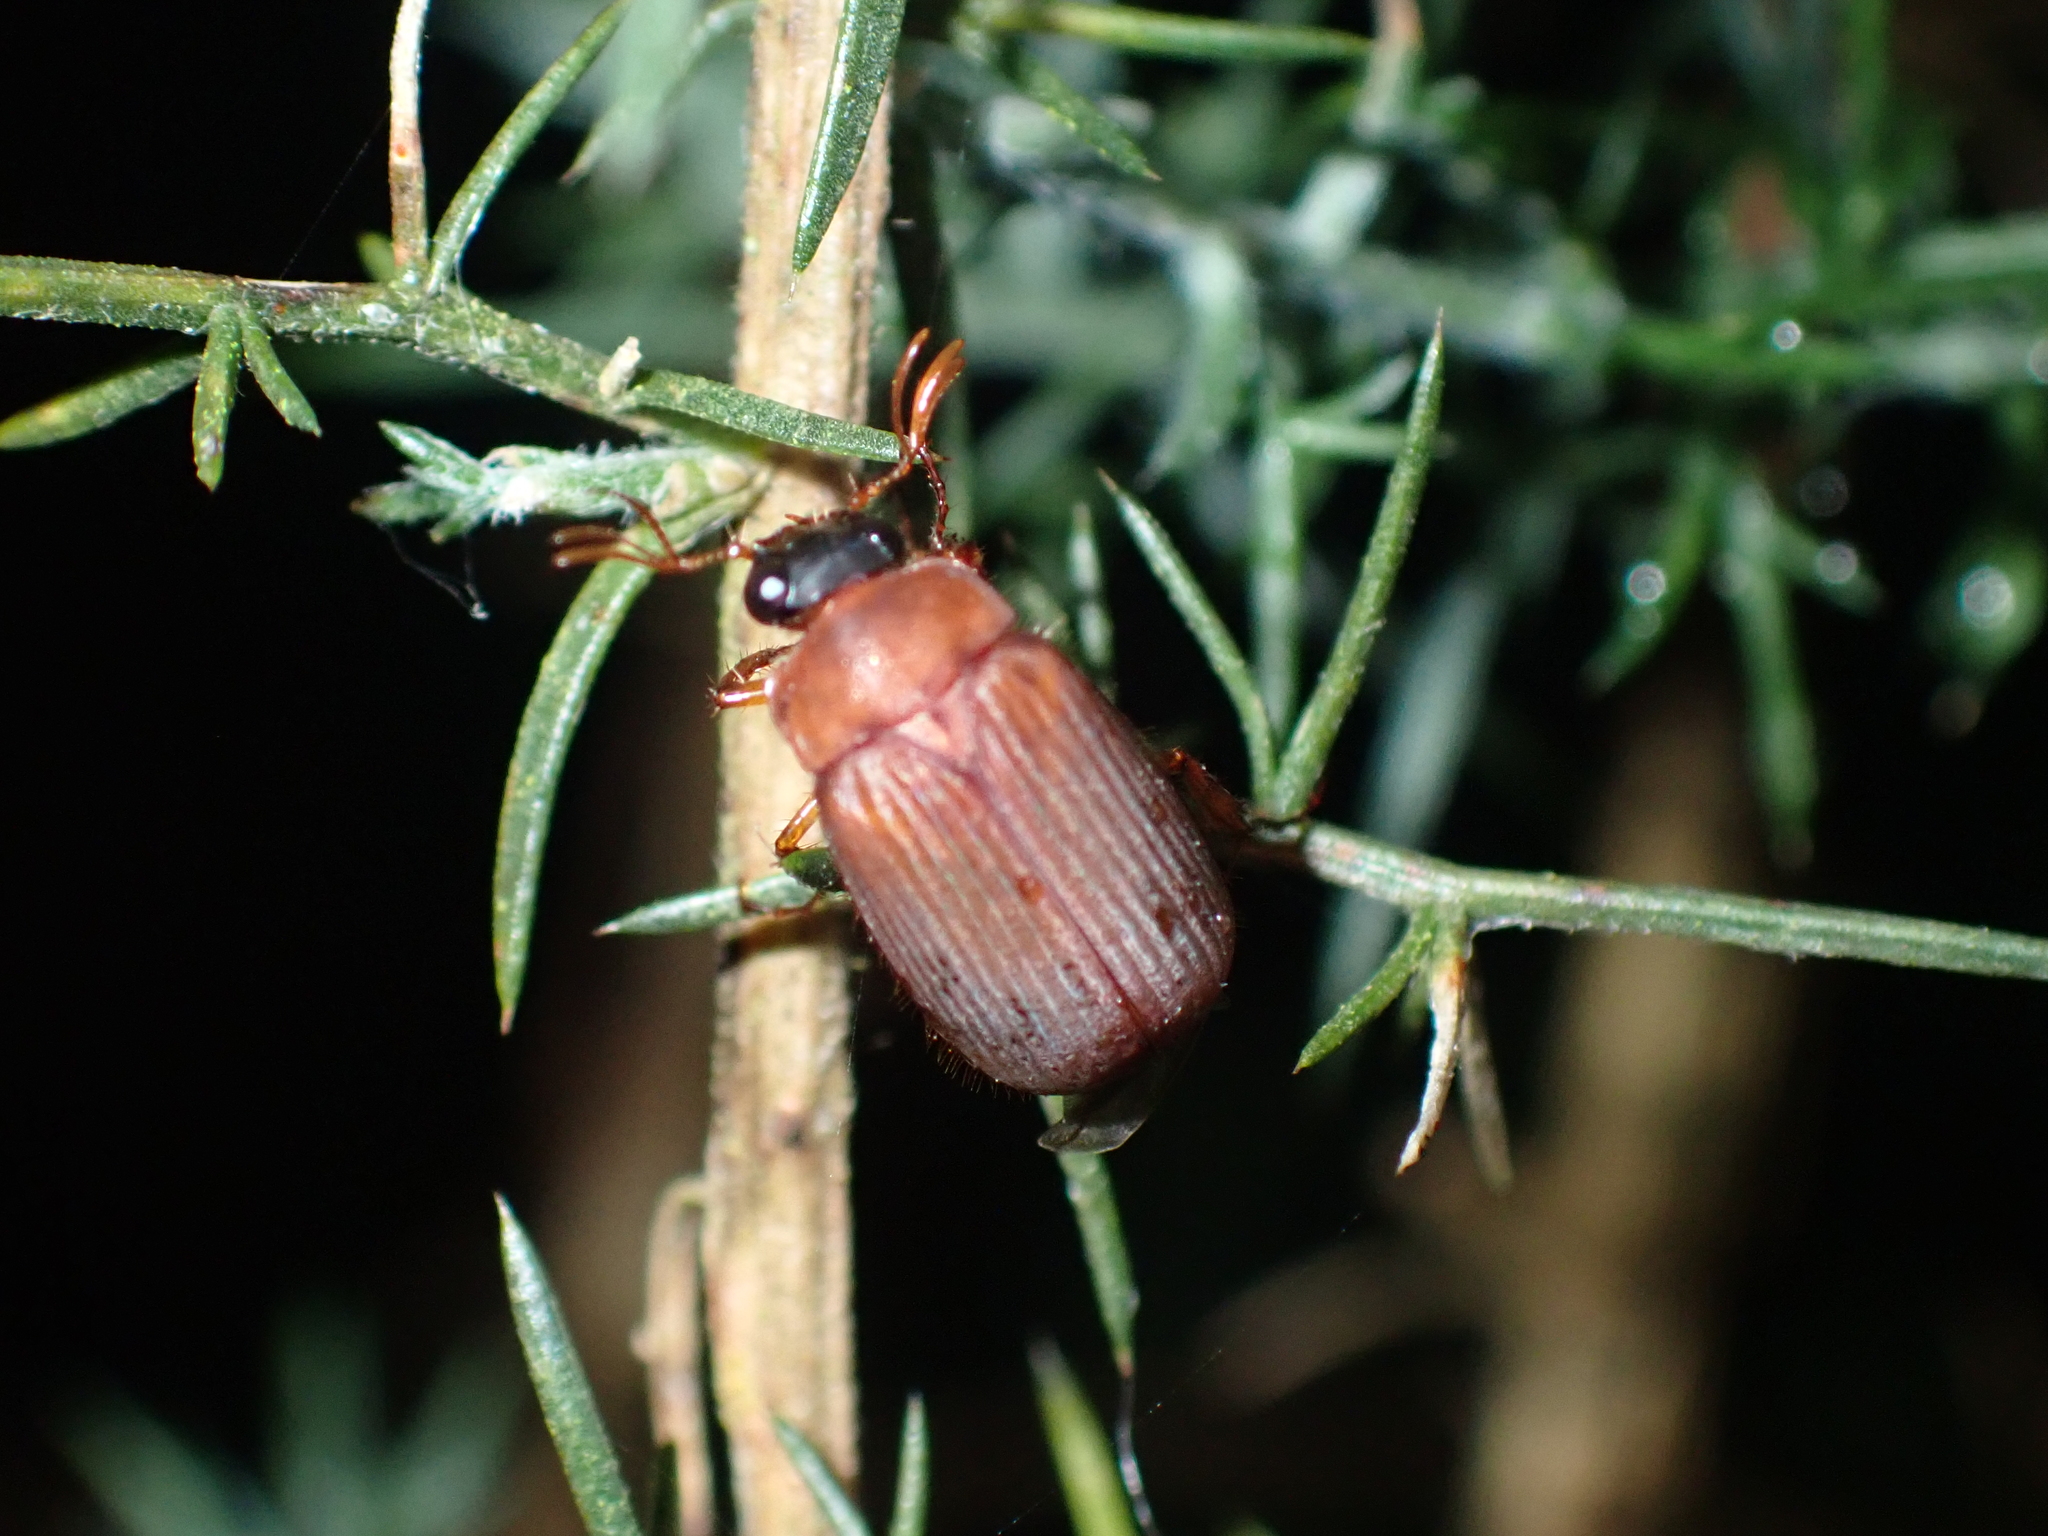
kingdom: Animalia
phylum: Arthropoda
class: Insecta
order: Coleoptera
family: Scarabaeidae
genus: Serica
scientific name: Serica brunnea
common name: Brown chafer
